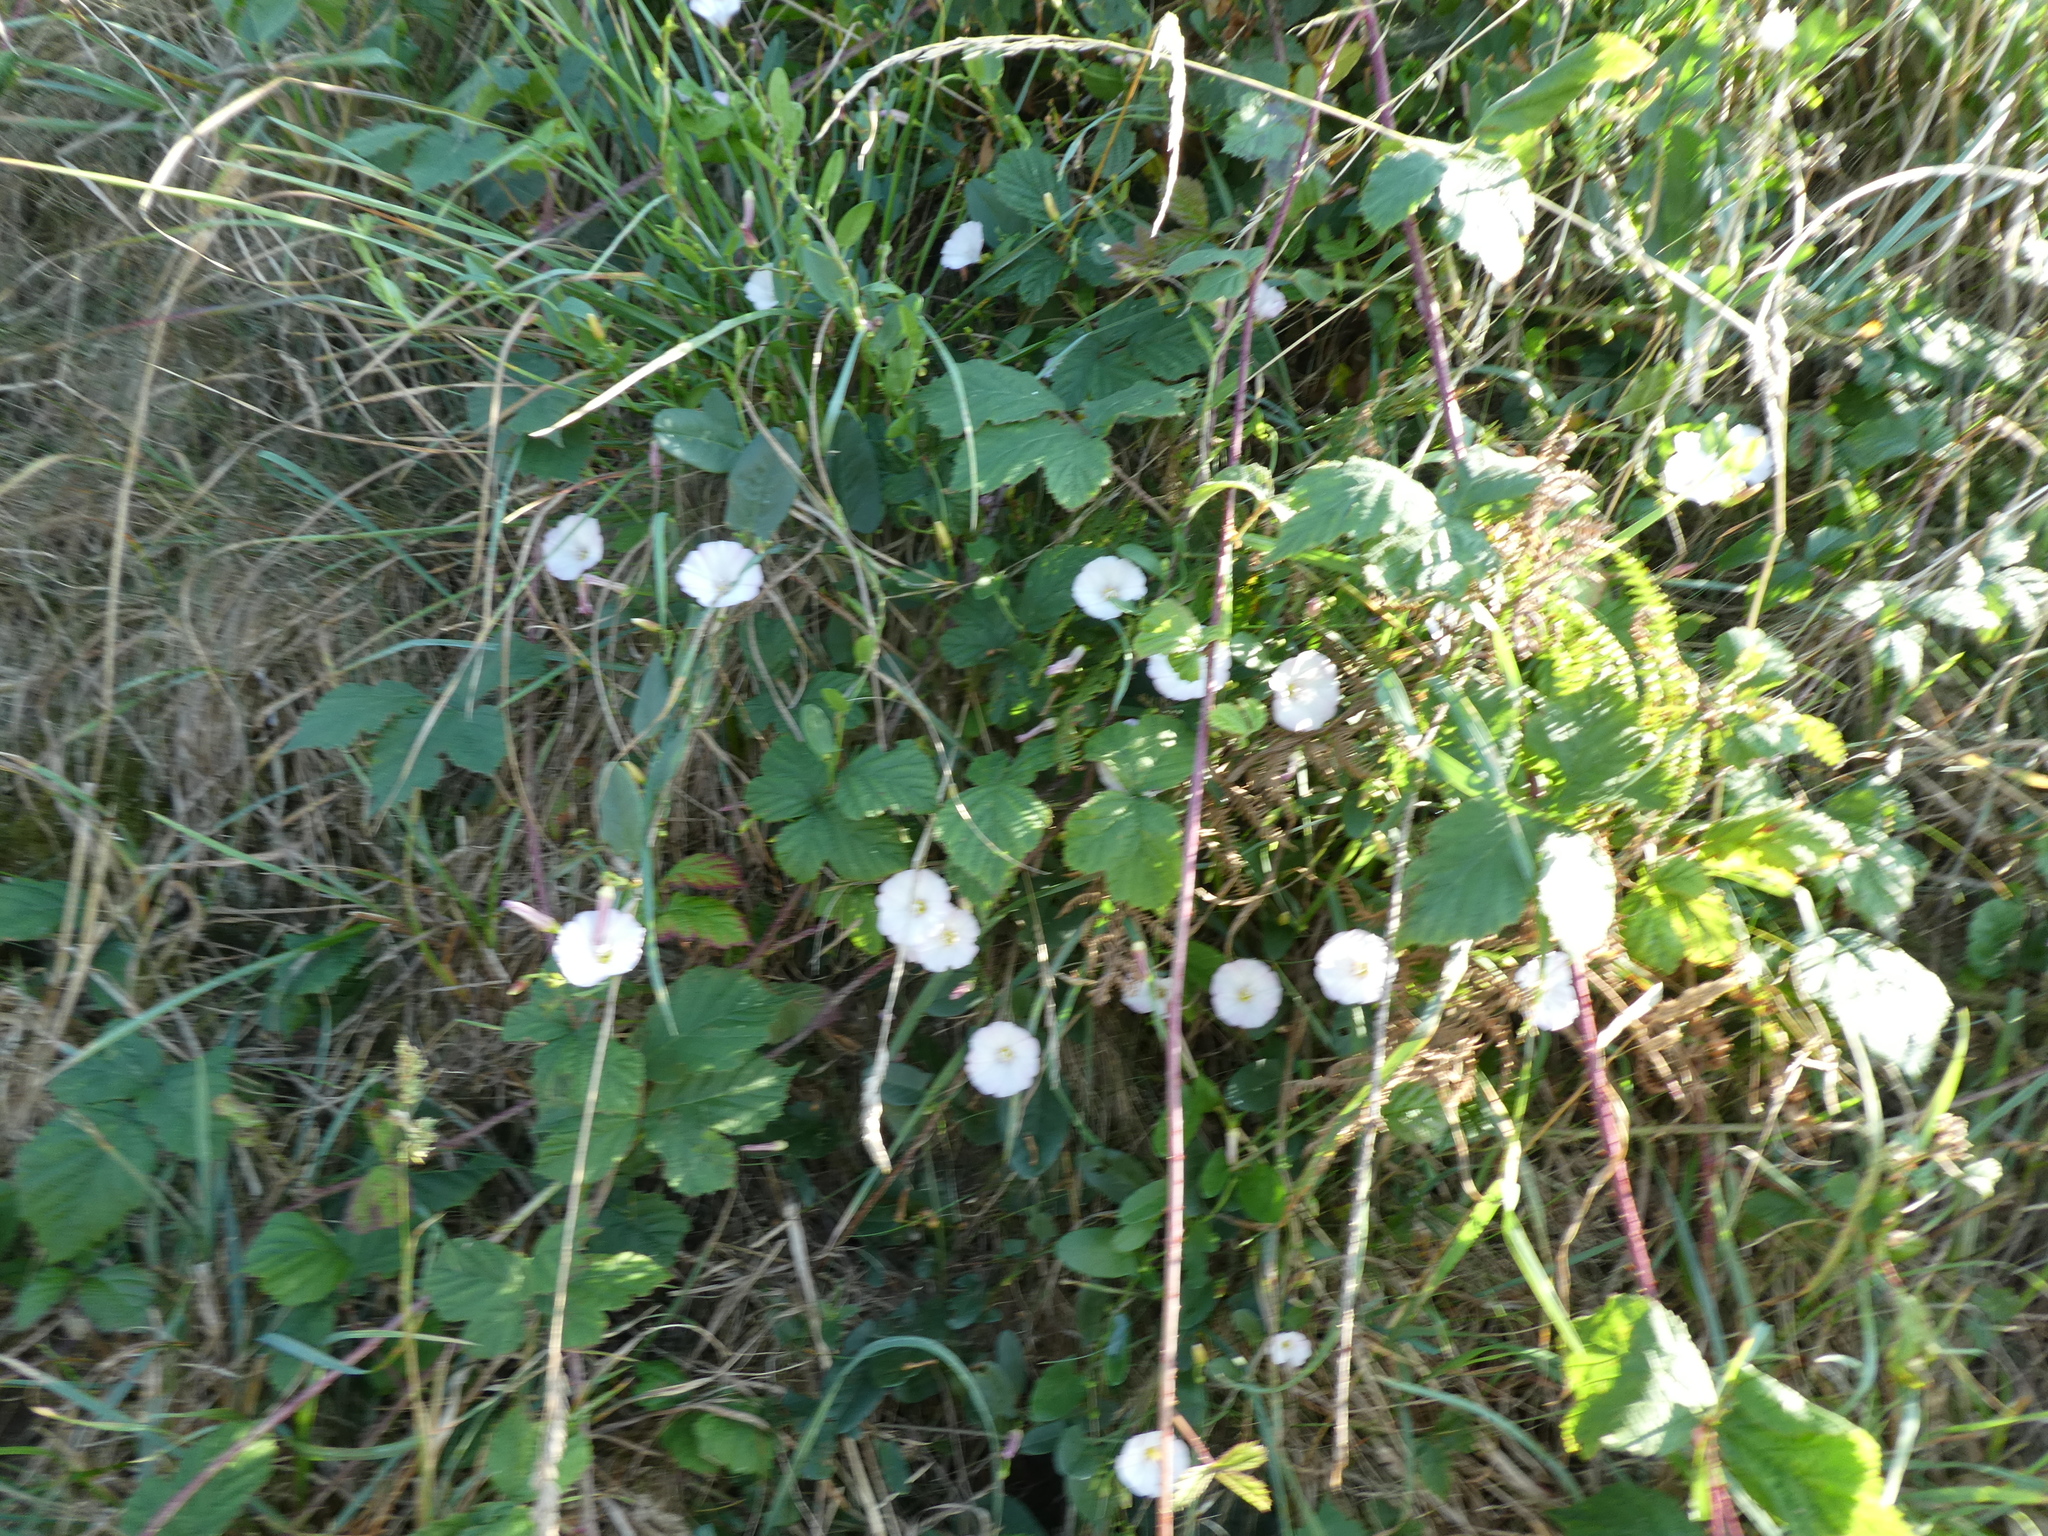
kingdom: Plantae
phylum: Tracheophyta
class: Magnoliopsida
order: Solanales
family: Convolvulaceae
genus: Convolvulus
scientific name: Convolvulus arvensis
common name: Field bindweed
